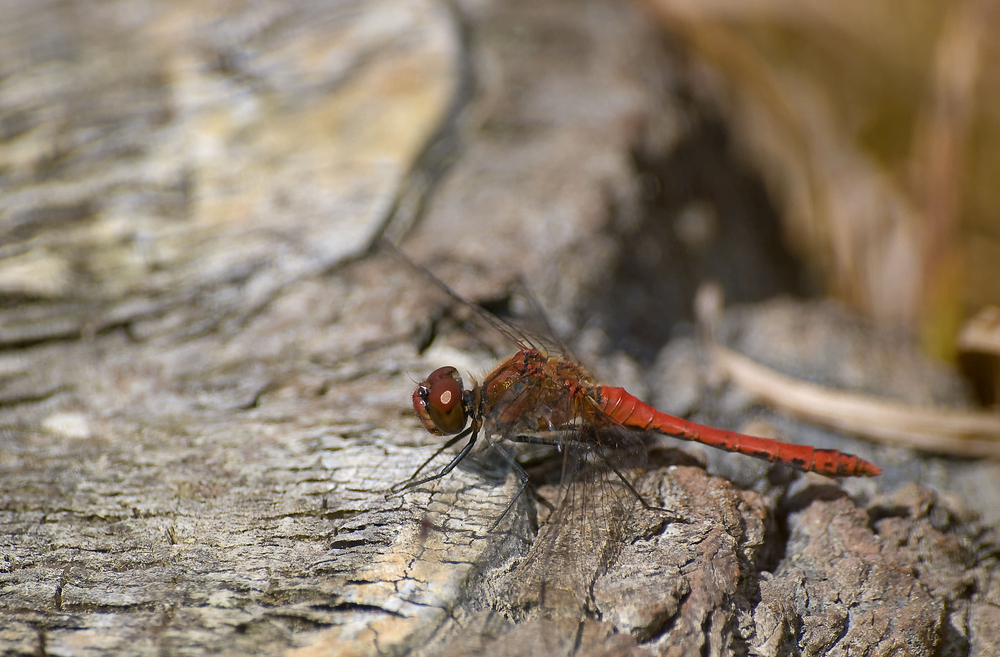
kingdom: Animalia
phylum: Arthropoda
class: Insecta
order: Odonata
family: Libellulidae
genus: Sympetrum
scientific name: Sympetrum sanguineum
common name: Ruddy darter
